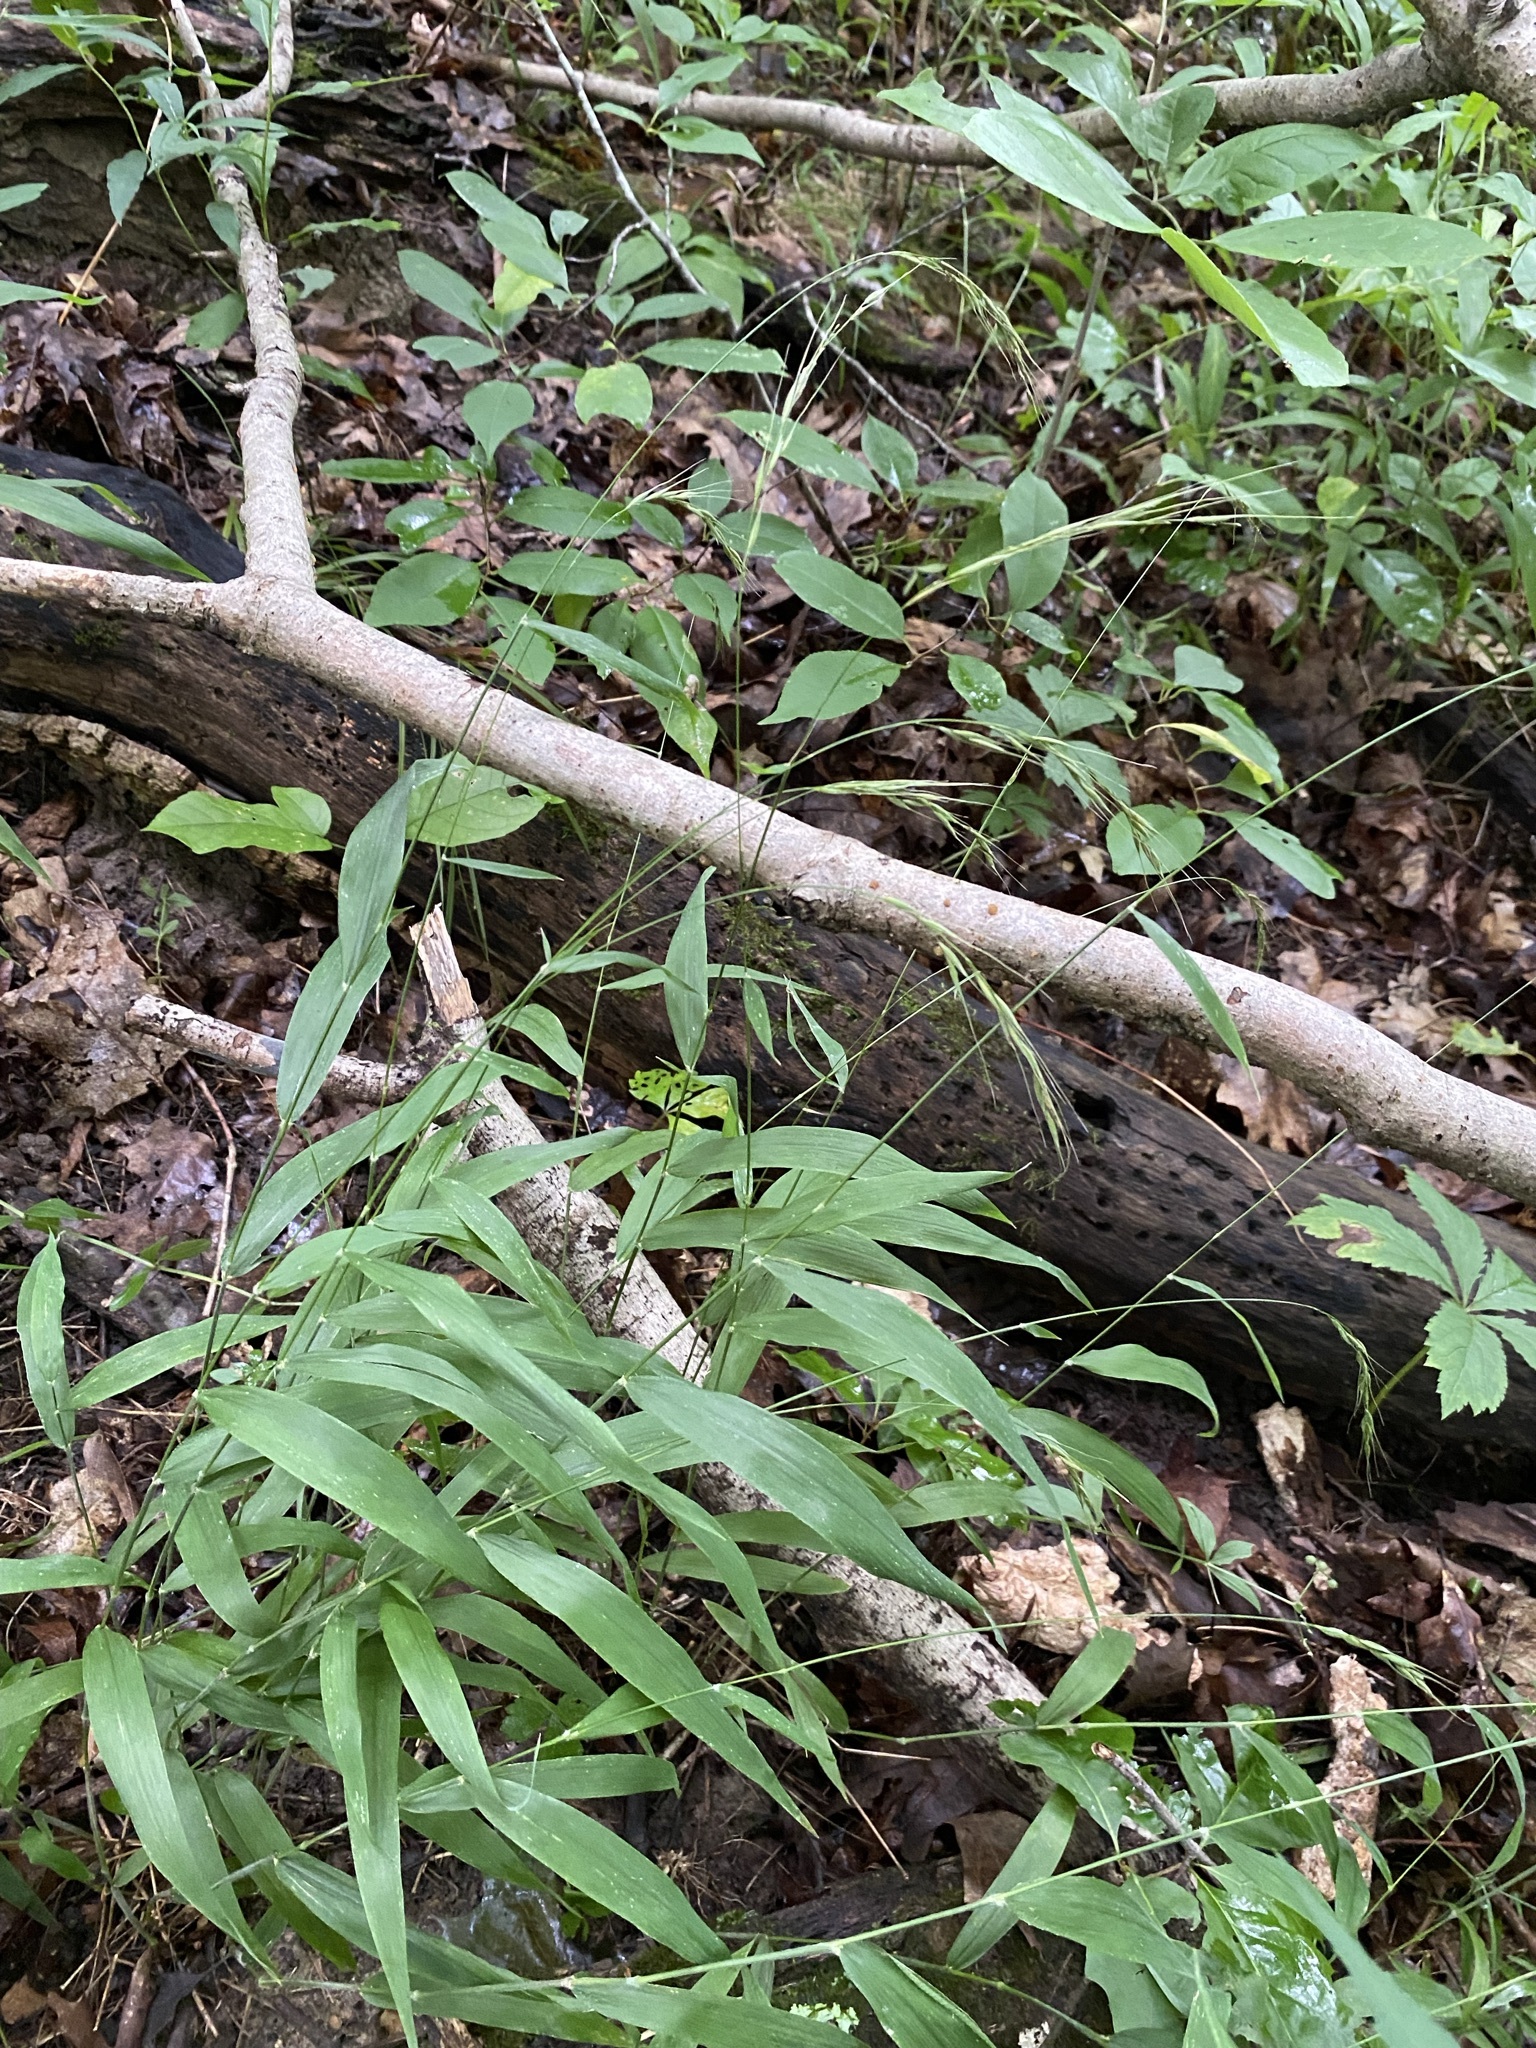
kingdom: Plantae
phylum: Tracheophyta
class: Liliopsida
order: Poales
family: Poaceae
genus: Brachyelytrum
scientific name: Brachyelytrum erectum
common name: Bearded shorthusk
